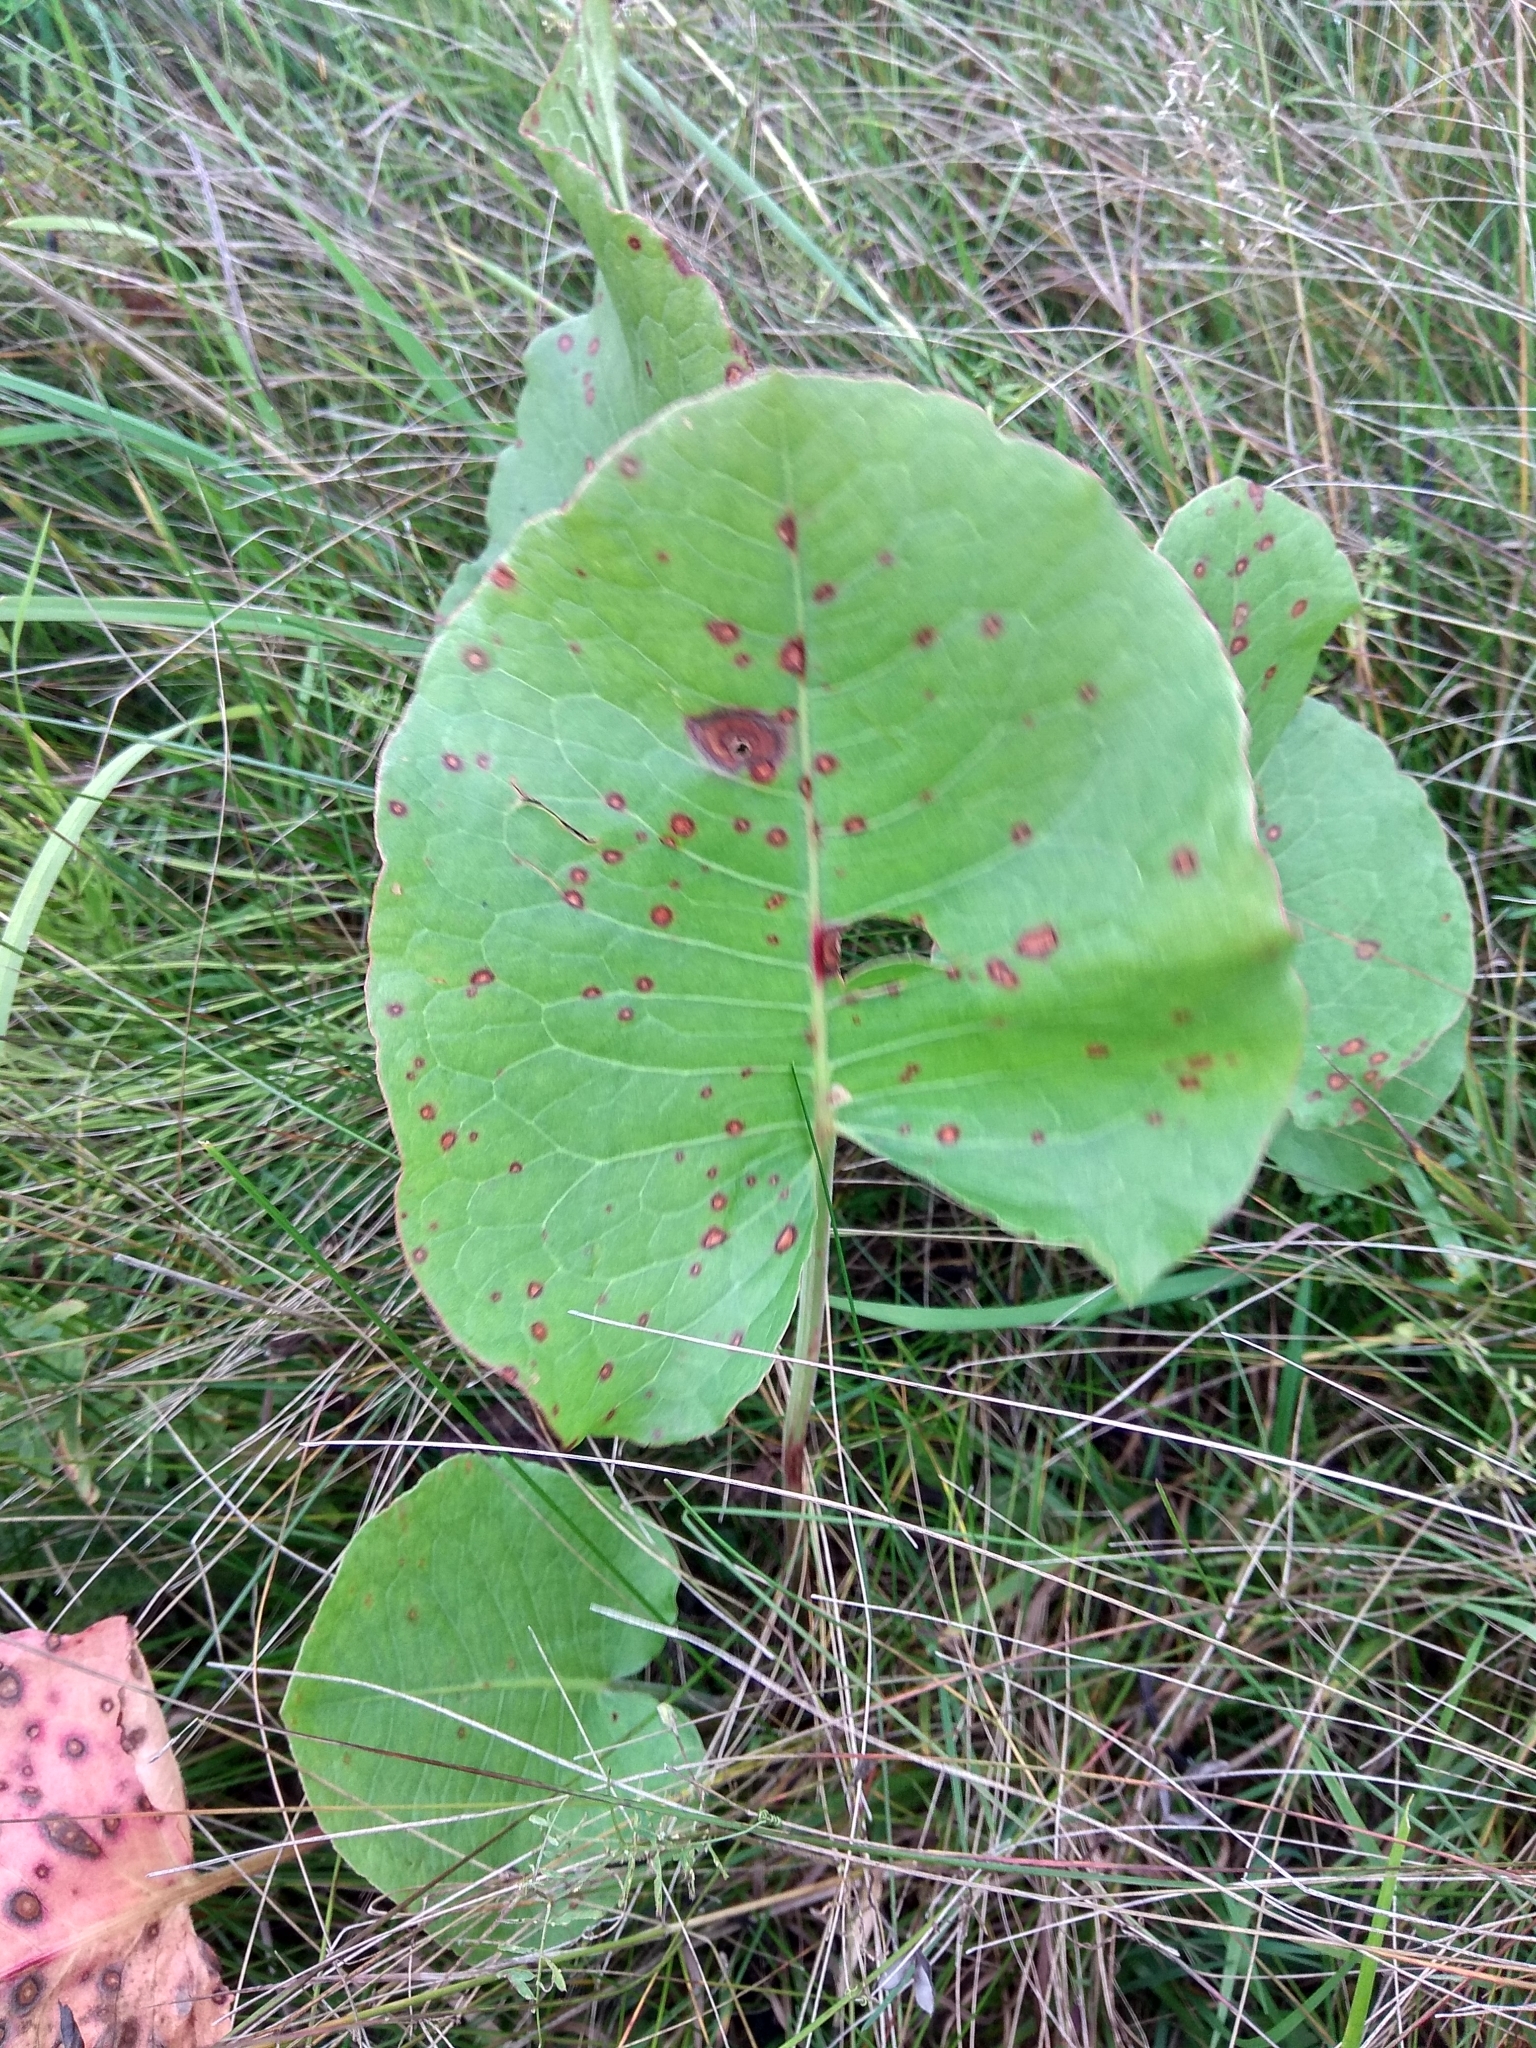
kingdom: Plantae
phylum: Tracheophyta
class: Magnoliopsida
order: Caryophyllales
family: Polygonaceae
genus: Rumex
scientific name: Rumex confertus
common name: Russian dock
